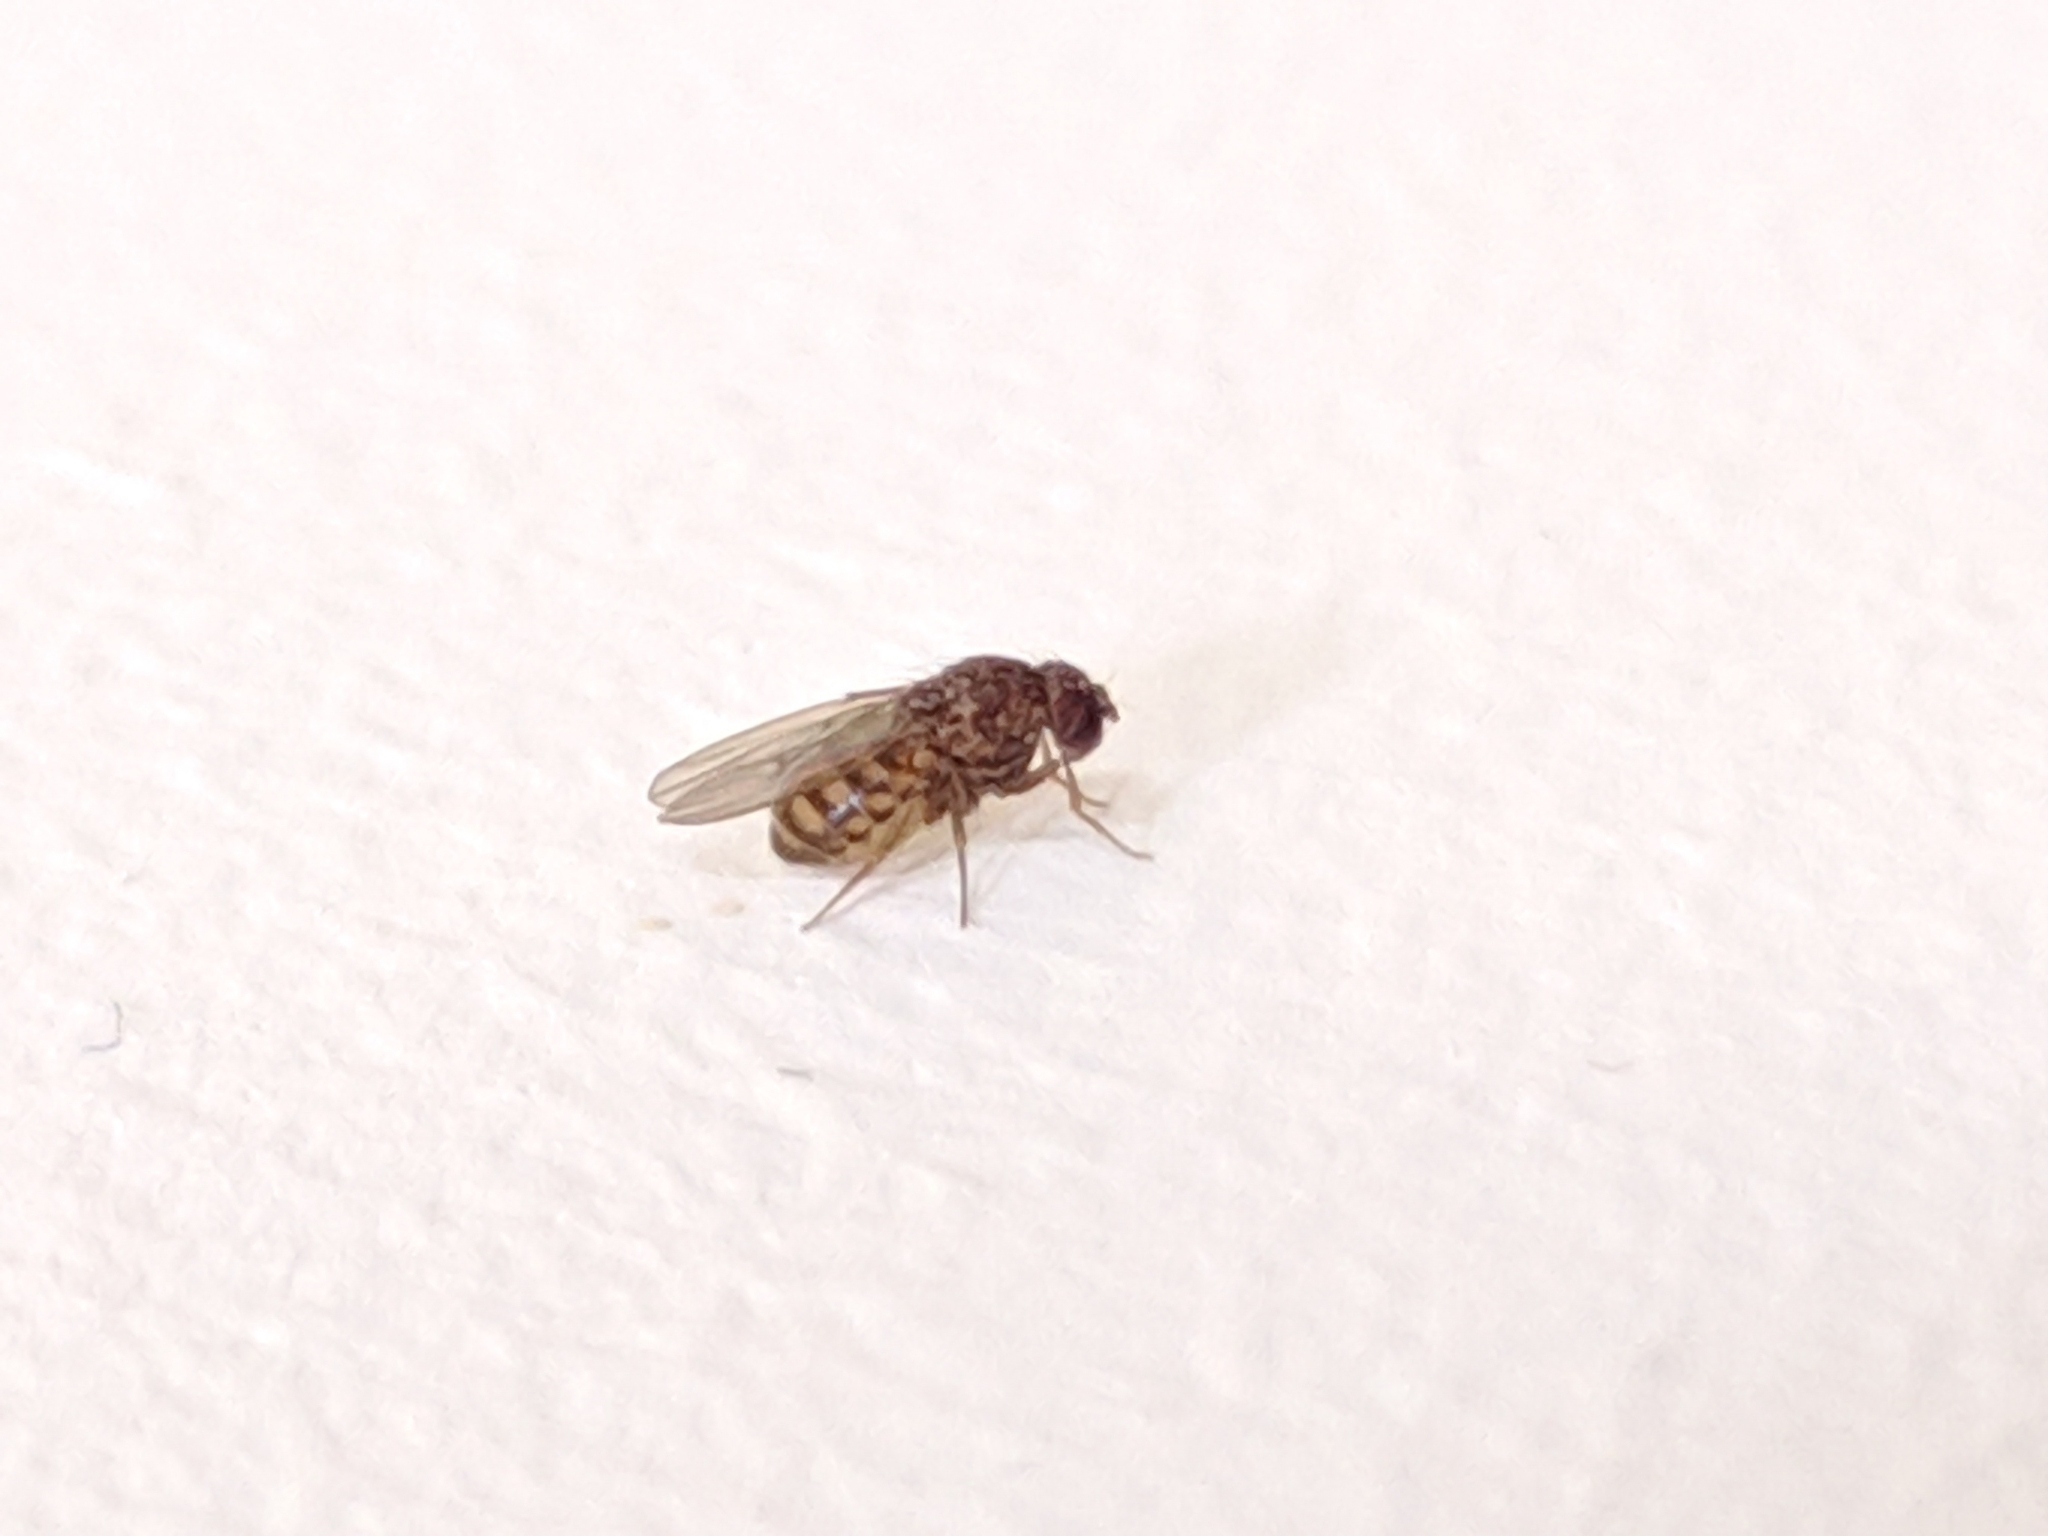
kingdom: Animalia
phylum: Arthropoda
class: Insecta
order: Diptera
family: Drosophilidae
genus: Drosophila
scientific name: Drosophila repleta
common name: Pomace fly
